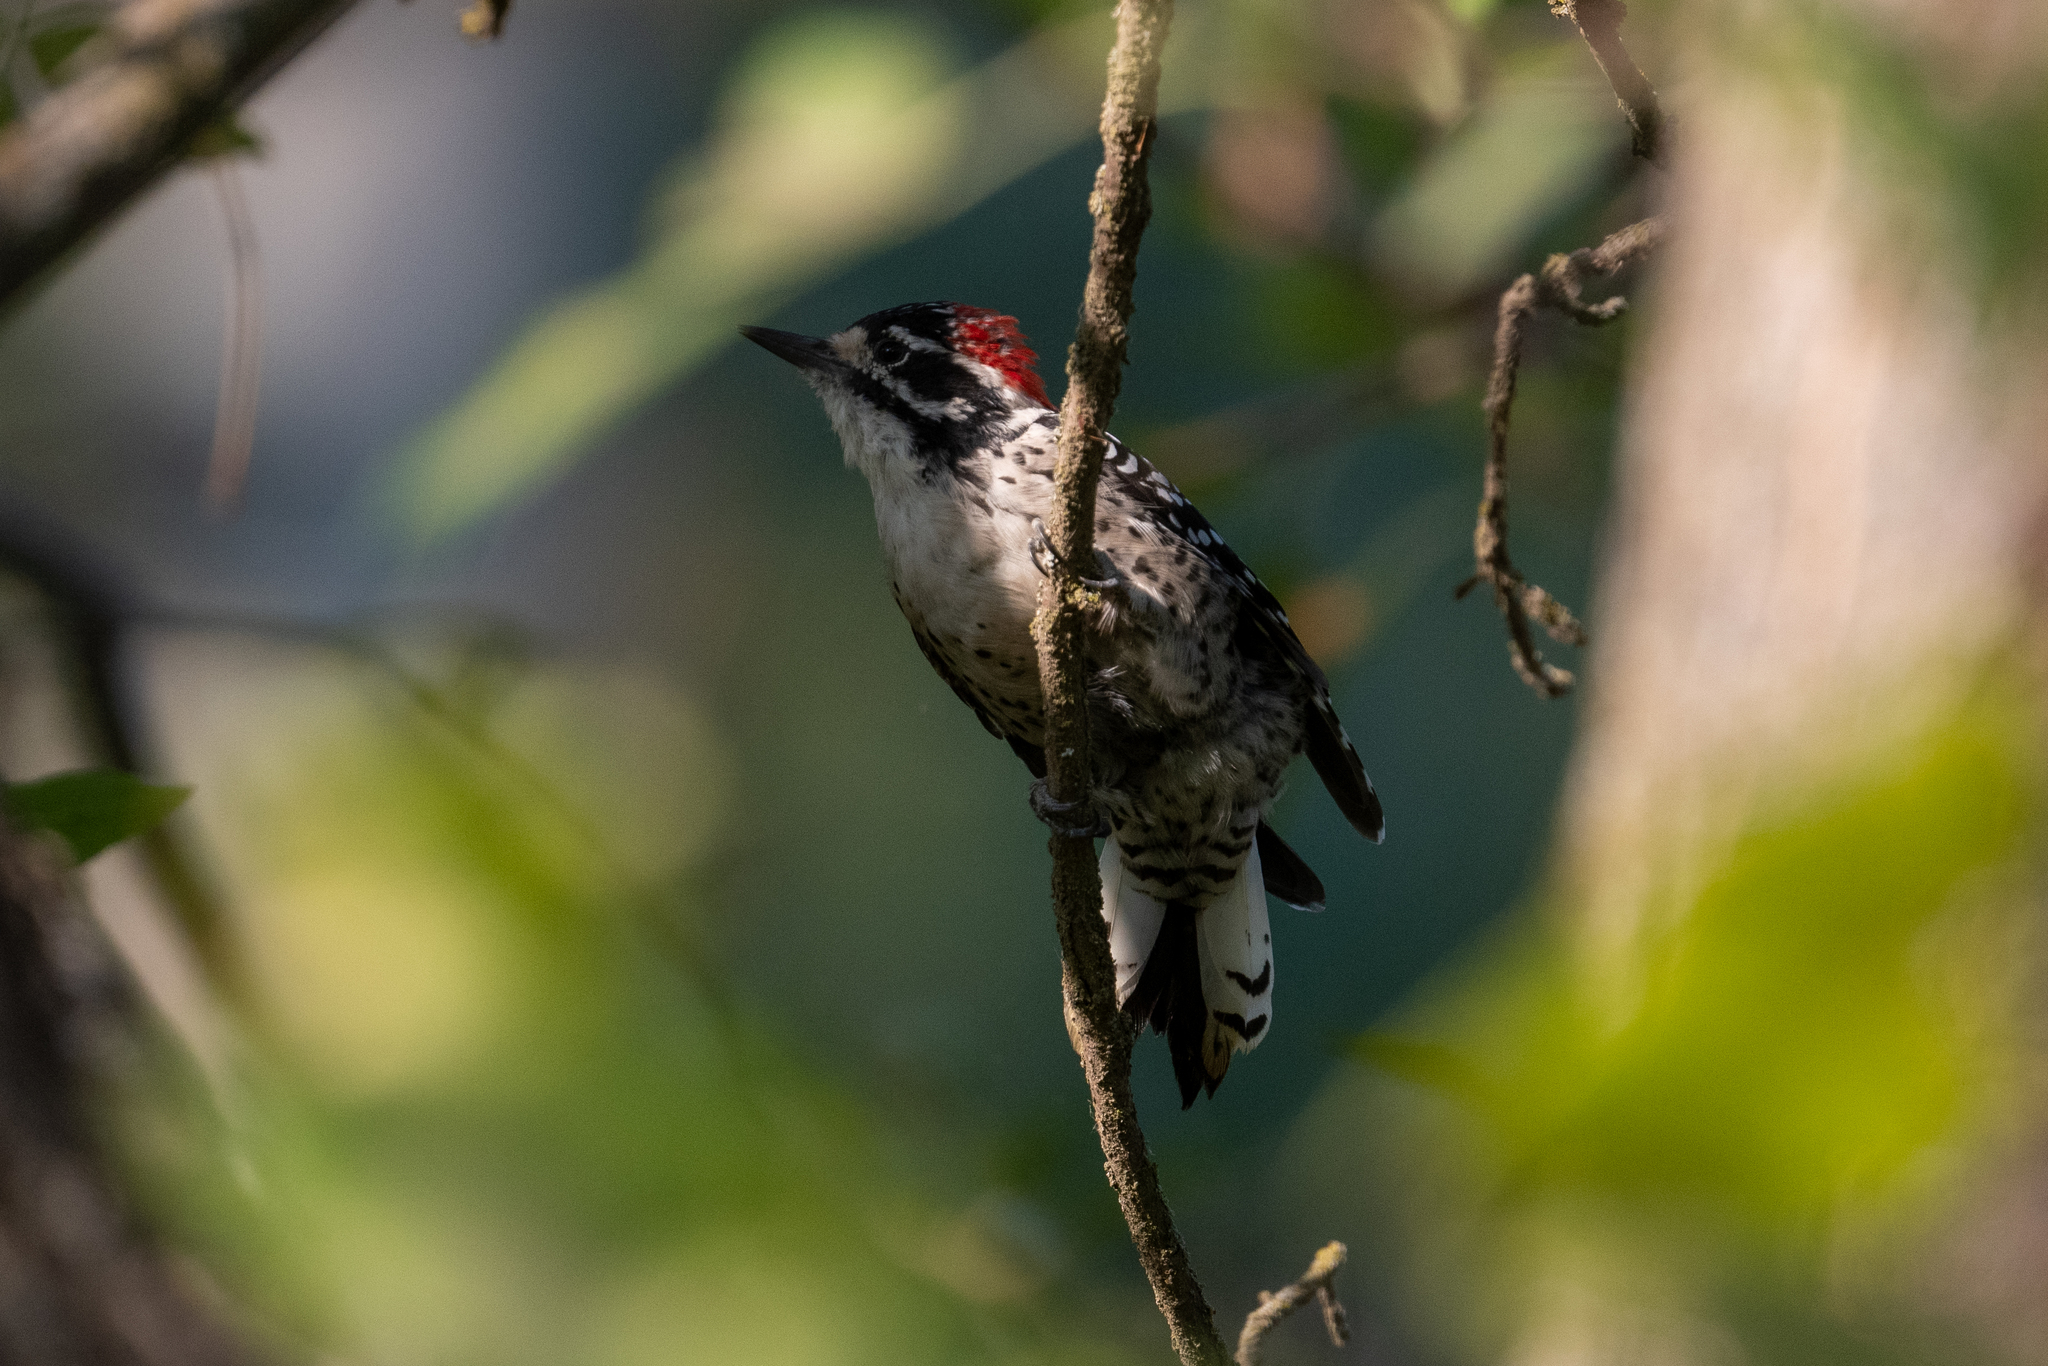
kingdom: Animalia
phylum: Chordata
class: Aves
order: Piciformes
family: Picidae
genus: Dryobates
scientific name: Dryobates nuttallii
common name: Nuttall's woodpecker
